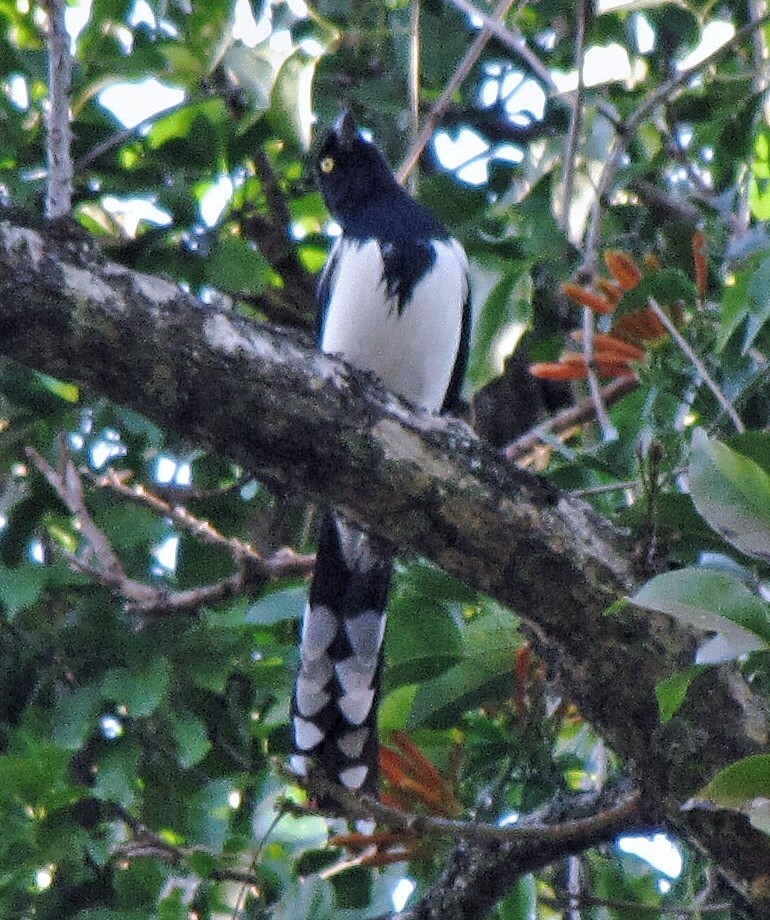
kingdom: Animalia
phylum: Chordata
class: Aves
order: Passeriformes
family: Thraupidae
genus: Cissopis
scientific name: Cissopis leverianus
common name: Magpie tanager
